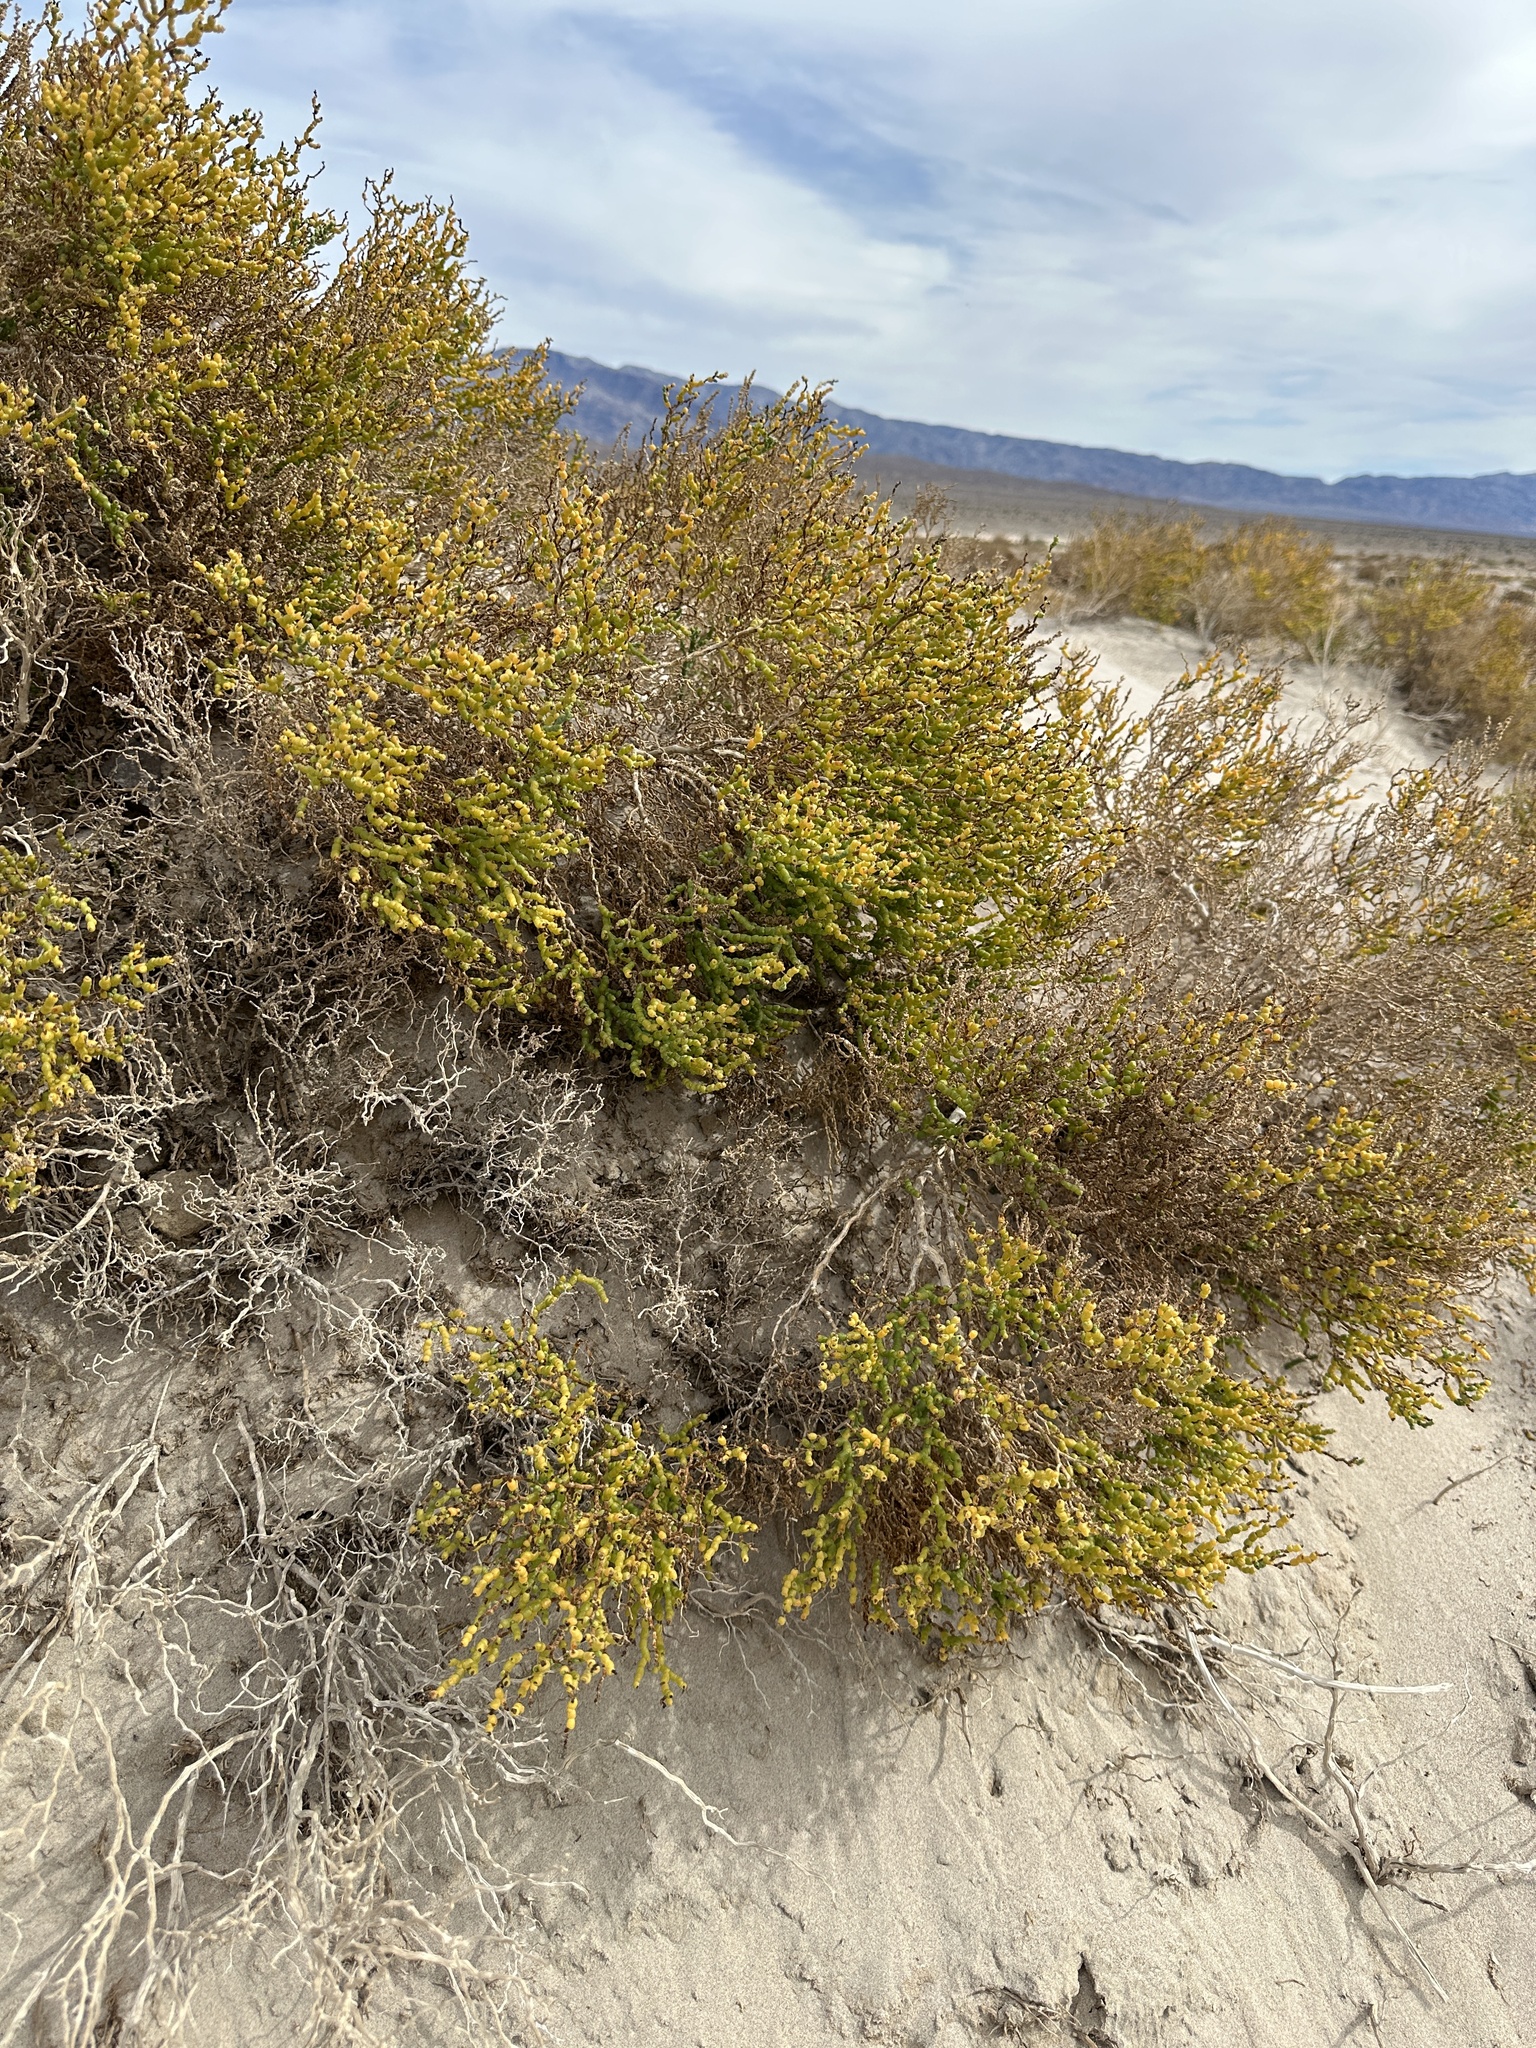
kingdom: Plantae
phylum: Tracheophyta
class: Magnoliopsida
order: Caryophyllales
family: Amaranthaceae
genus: Allenrolfea
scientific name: Allenrolfea occidentalis
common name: Iodine-bush
